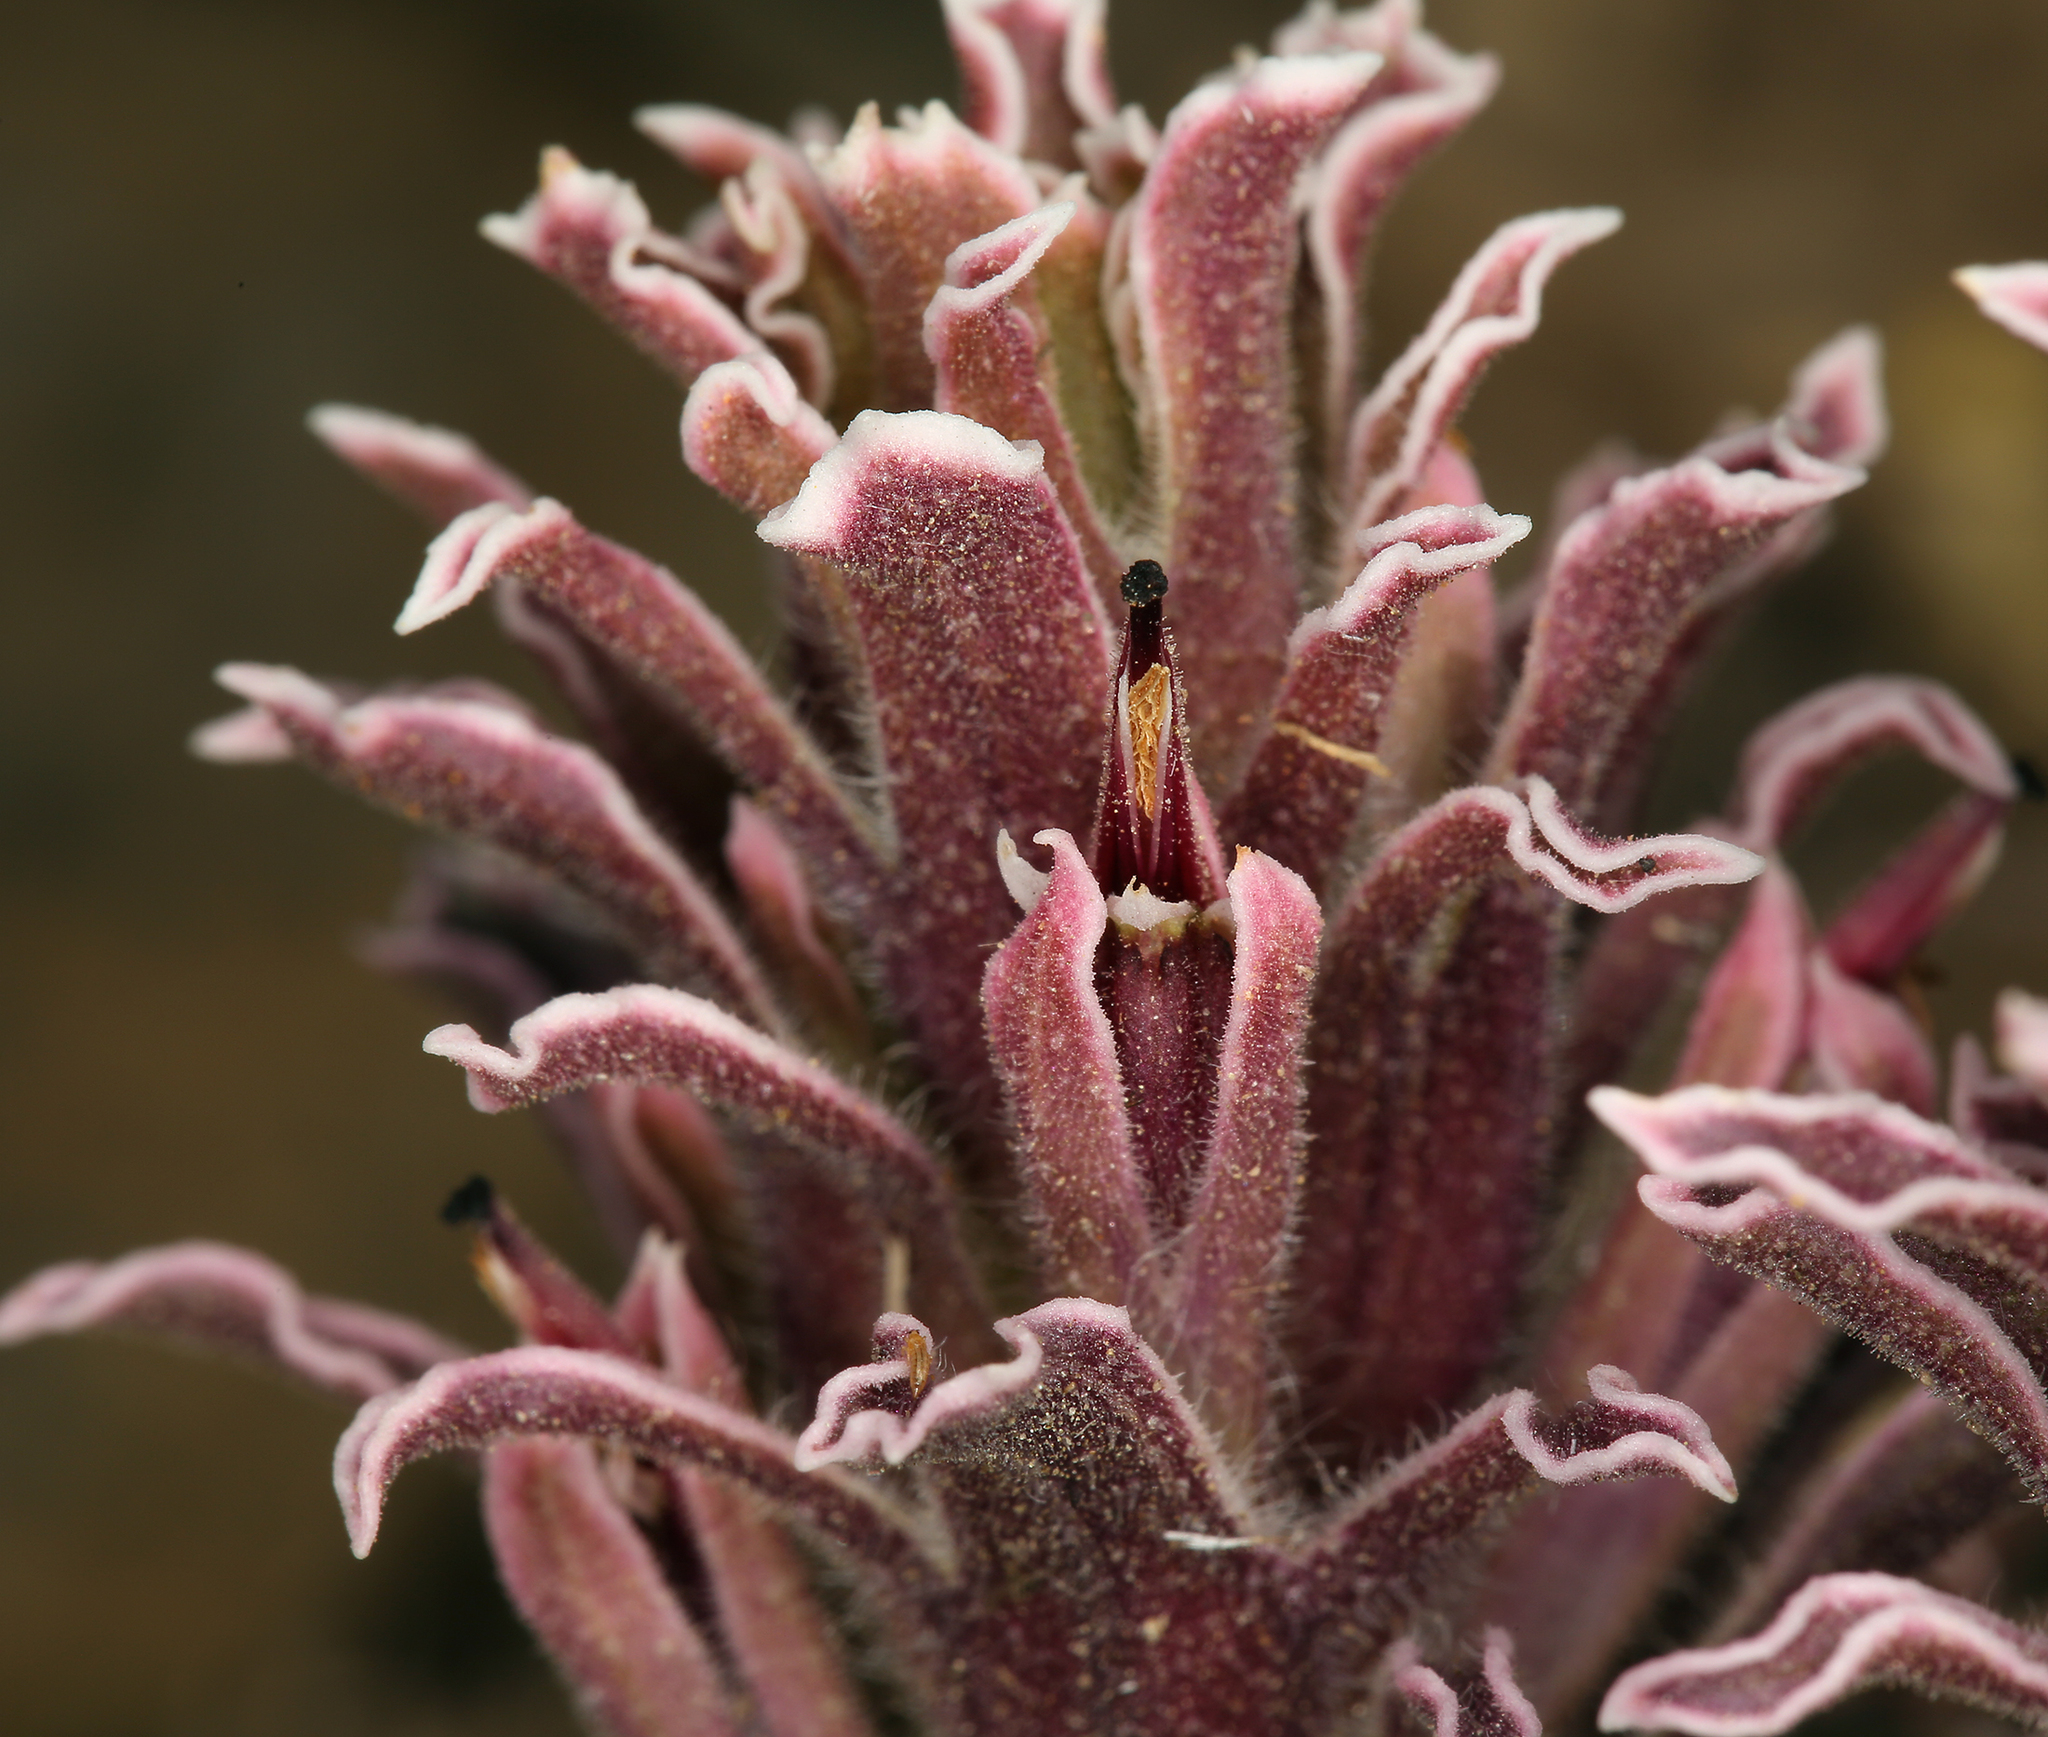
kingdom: Plantae
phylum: Tracheophyta
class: Magnoliopsida
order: Lamiales
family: Orobanchaceae
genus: Castilleja
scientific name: Castilleja nana
